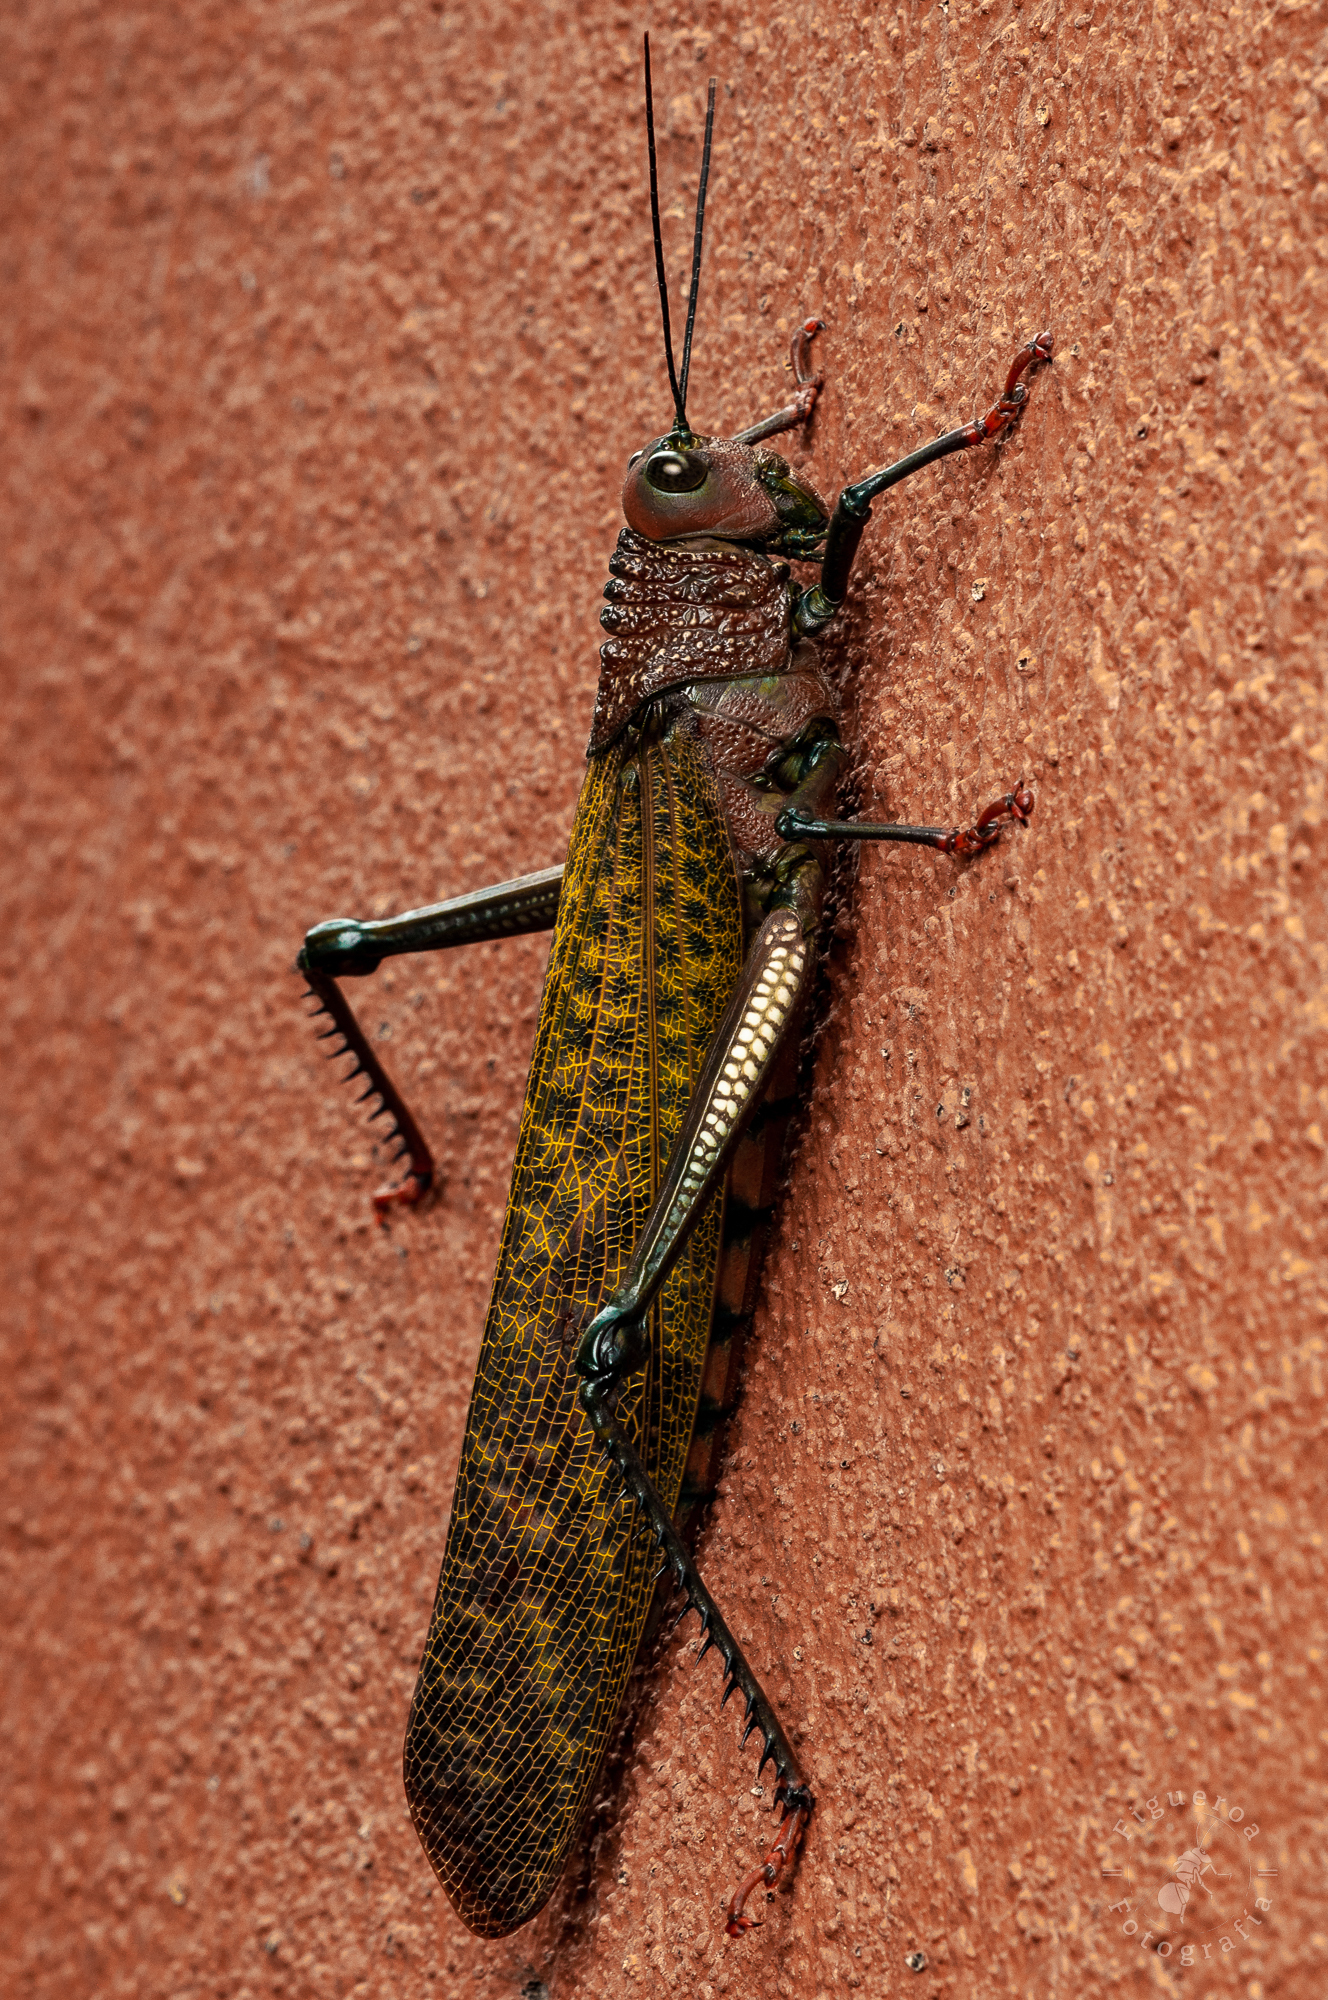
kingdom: Animalia
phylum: Arthropoda
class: Insecta
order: Orthoptera
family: Romaleidae
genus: Tropidacris
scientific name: Tropidacris cristata
